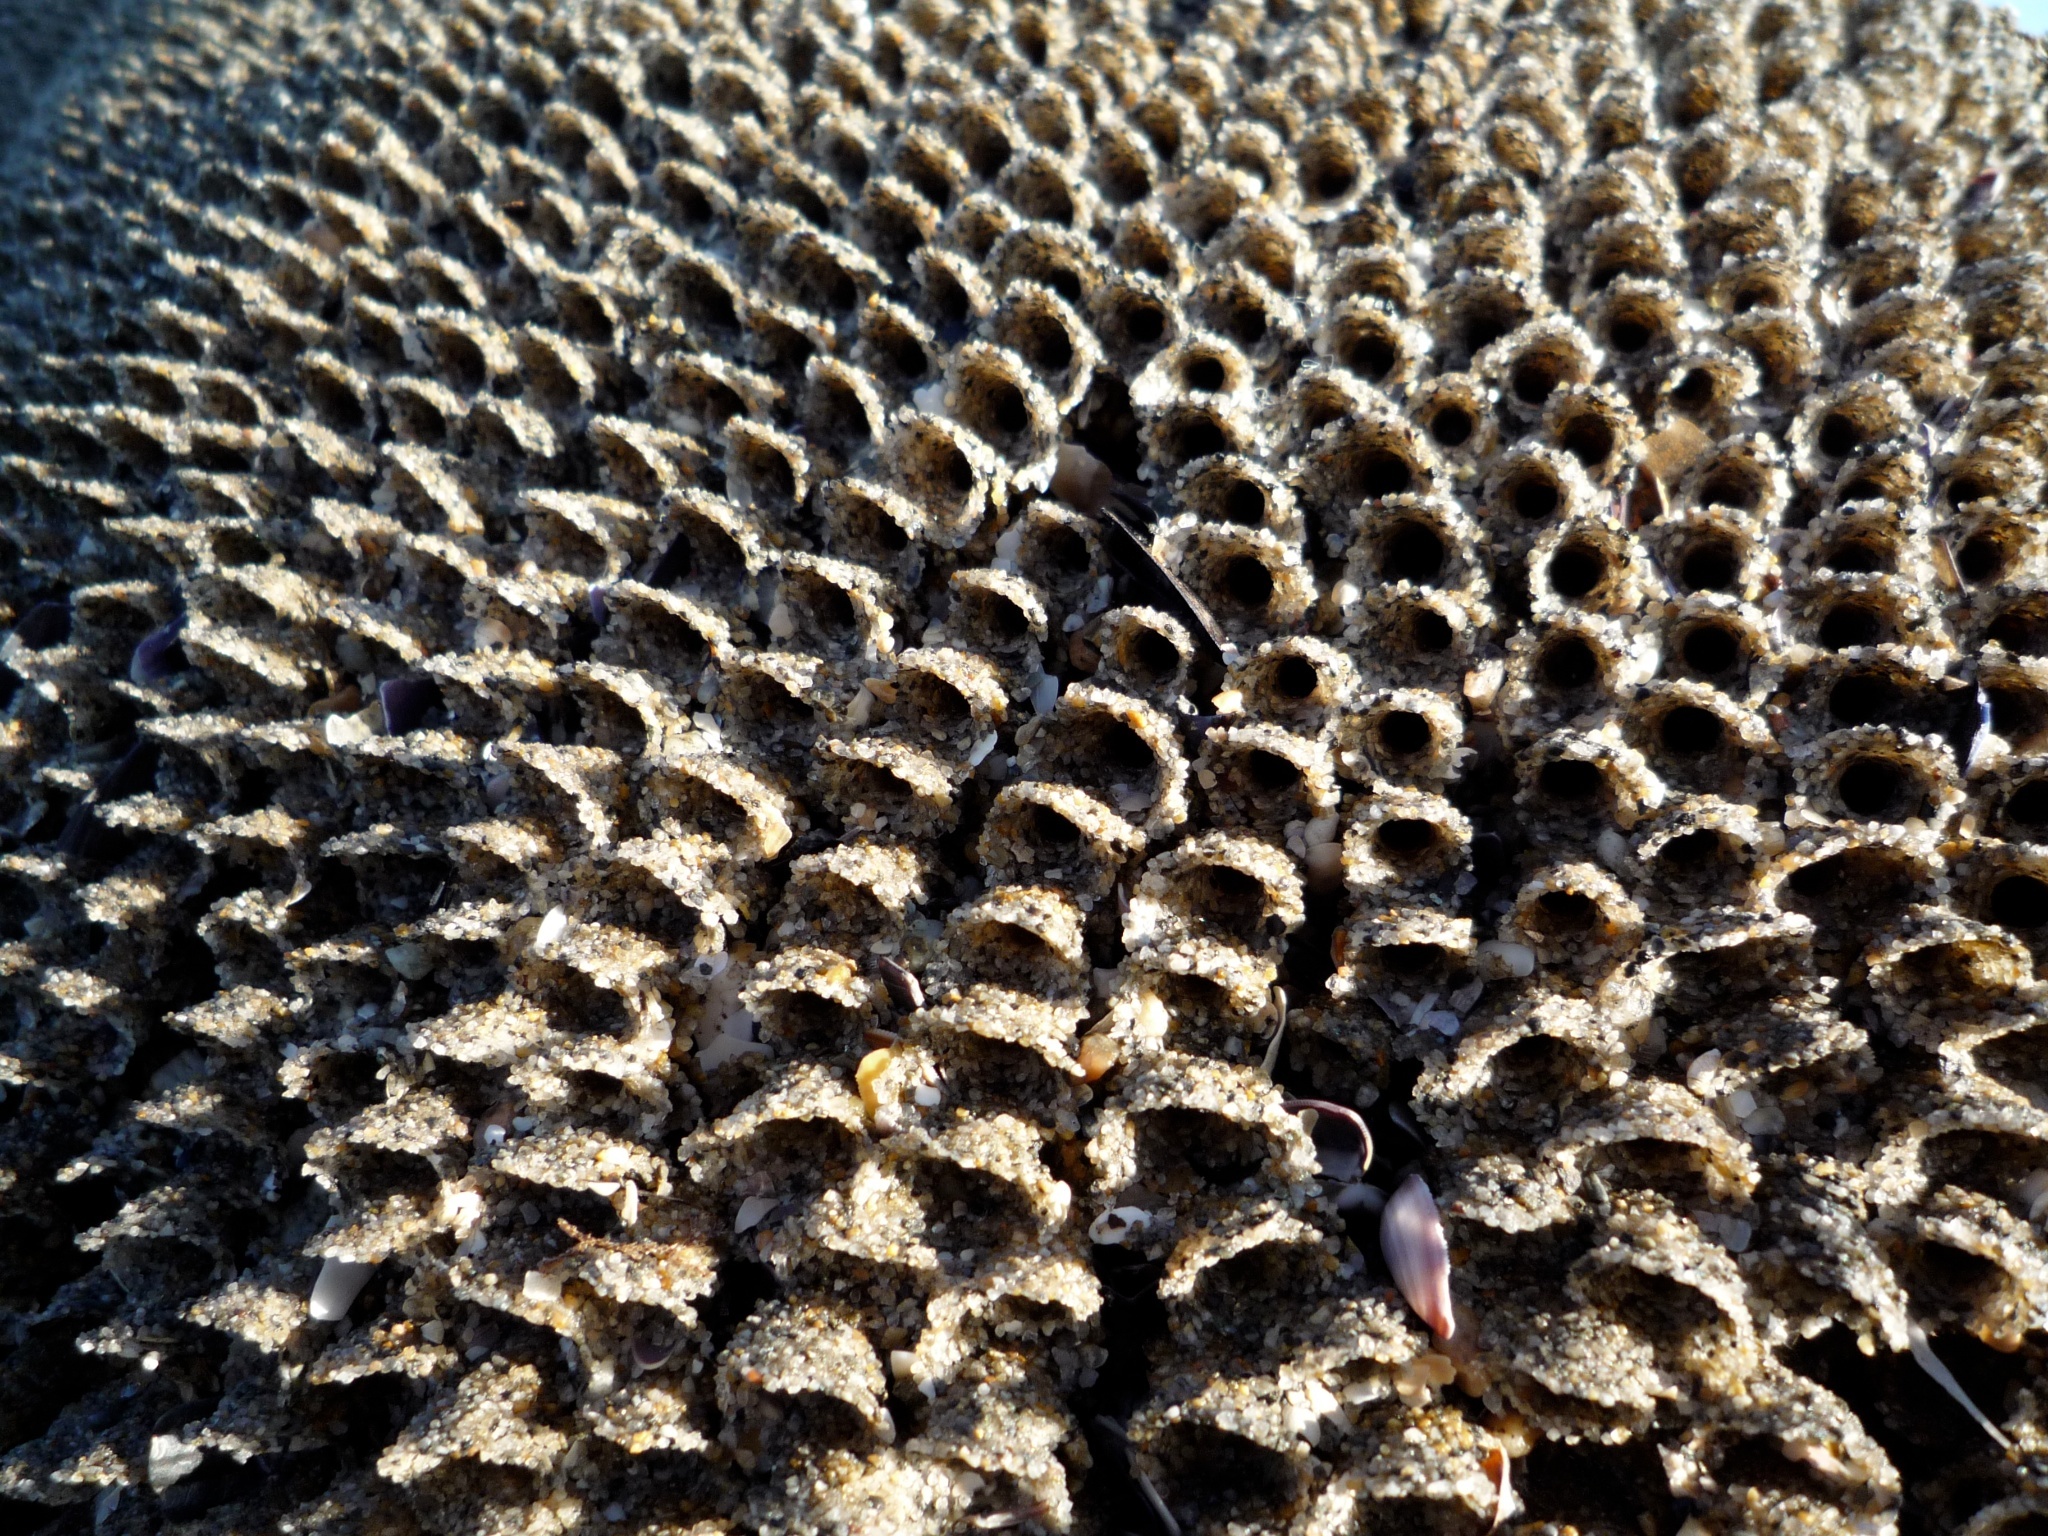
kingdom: Animalia
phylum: Annelida
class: Polychaeta
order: Sabellida
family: Sabellariidae
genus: Phragmatopoma
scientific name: Phragmatopoma californica
